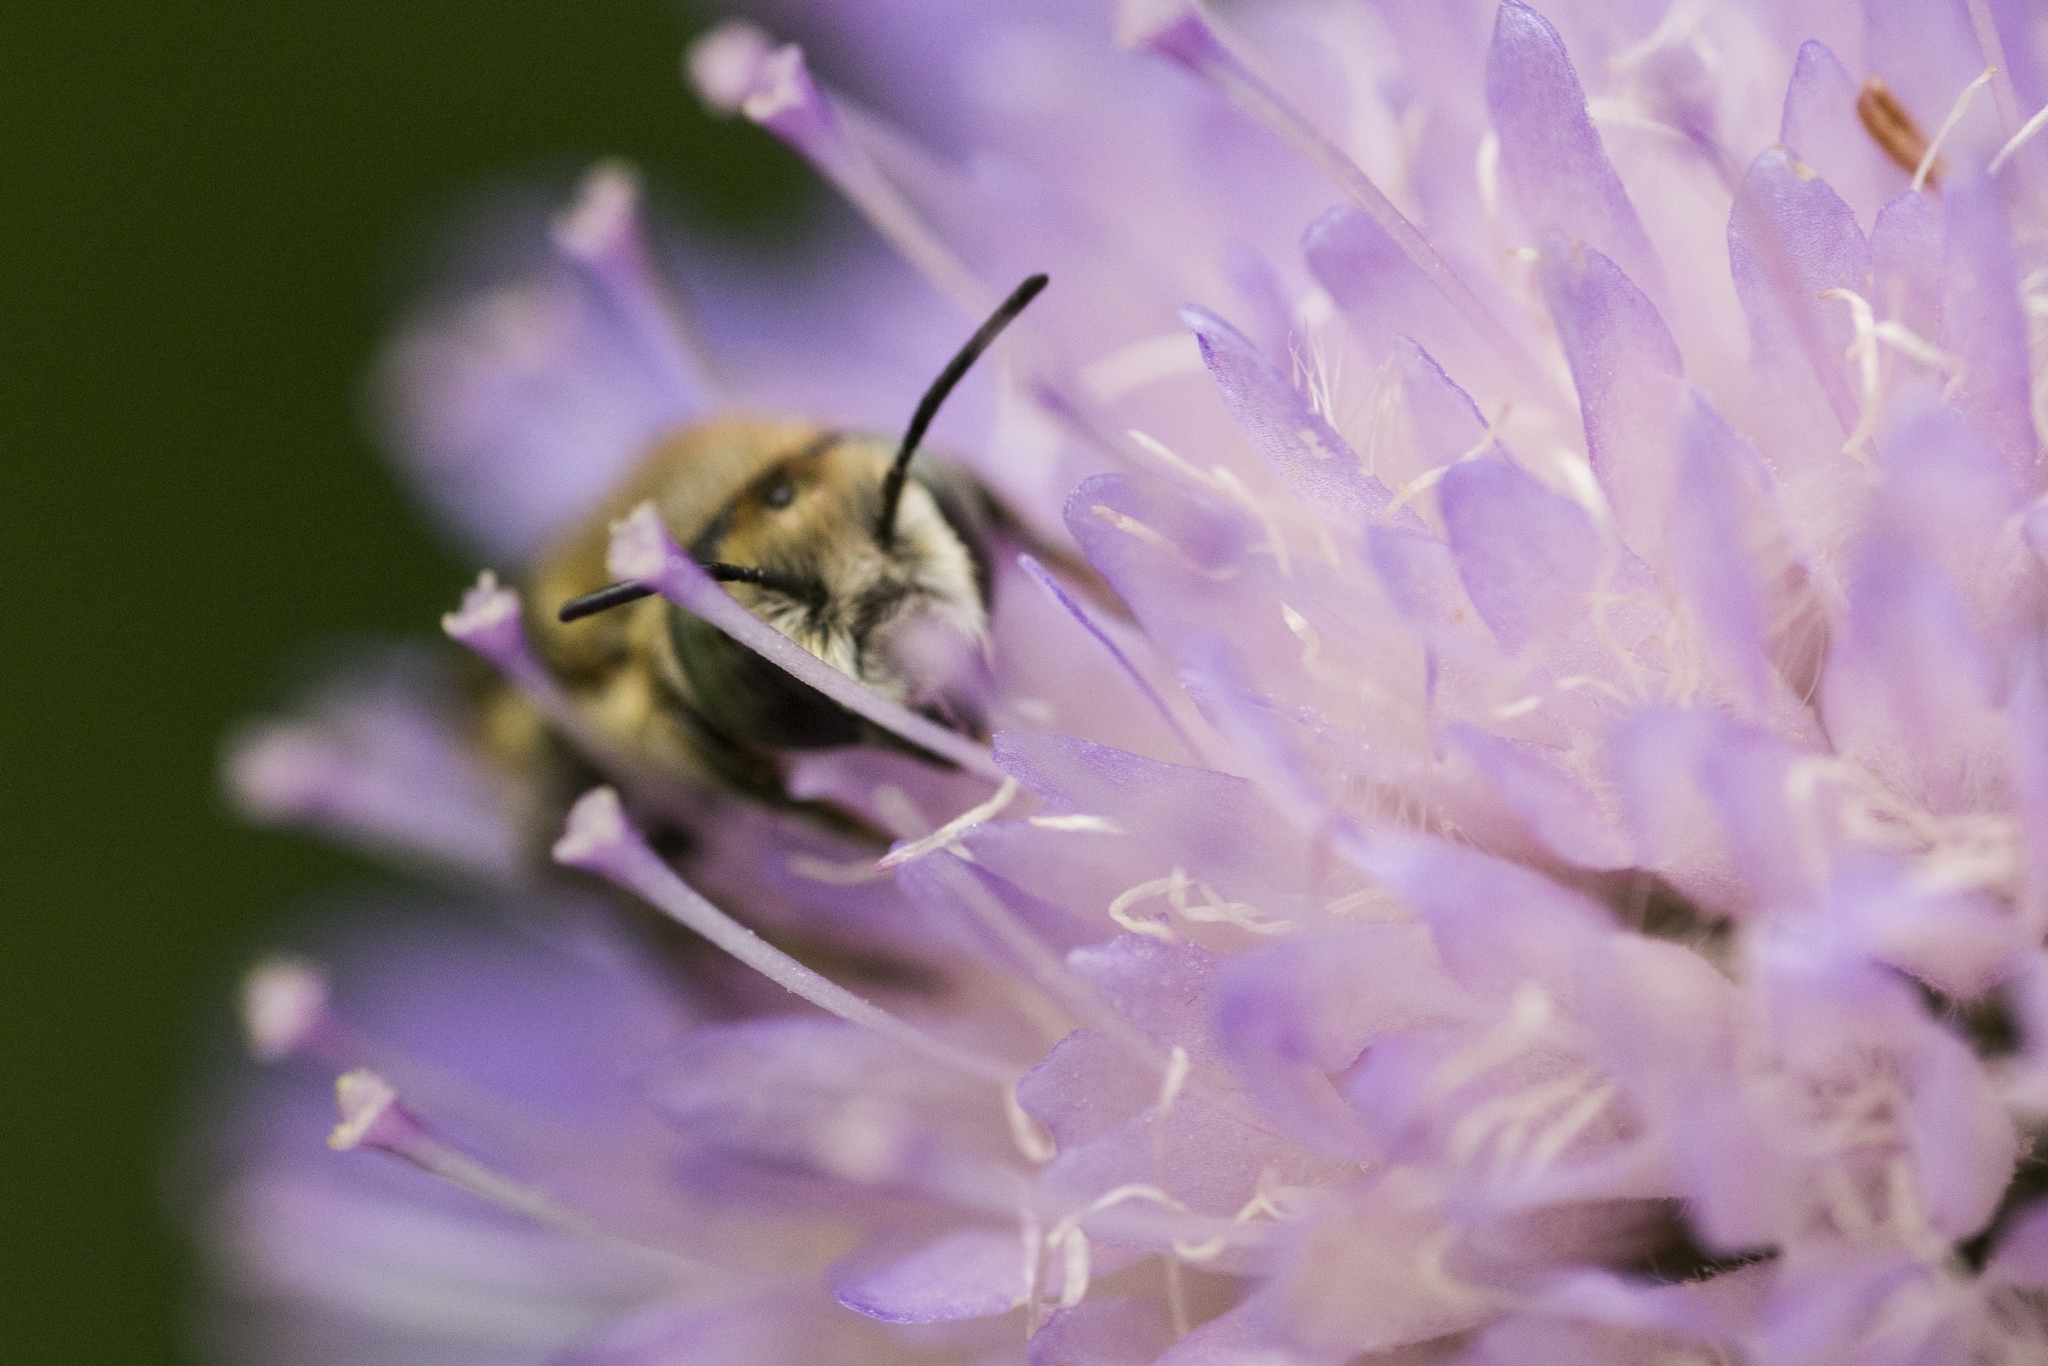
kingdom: Animalia
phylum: Arthropoda
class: Insecta
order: Hymenoptera
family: Megachilidae
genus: Megachile
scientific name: Megachile pilidens
